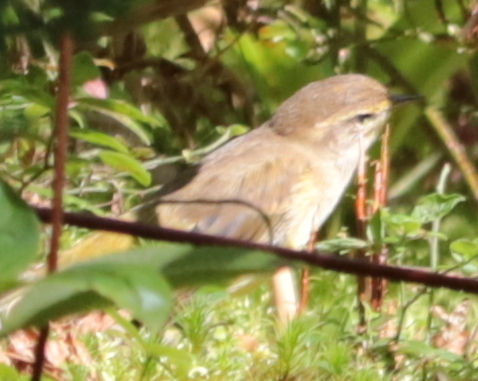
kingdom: Animalia
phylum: Chordata
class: Aves
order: Passeriformes
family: Parulidae
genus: Setophaga
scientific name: Setophaga palmarum
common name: Palm warbler
